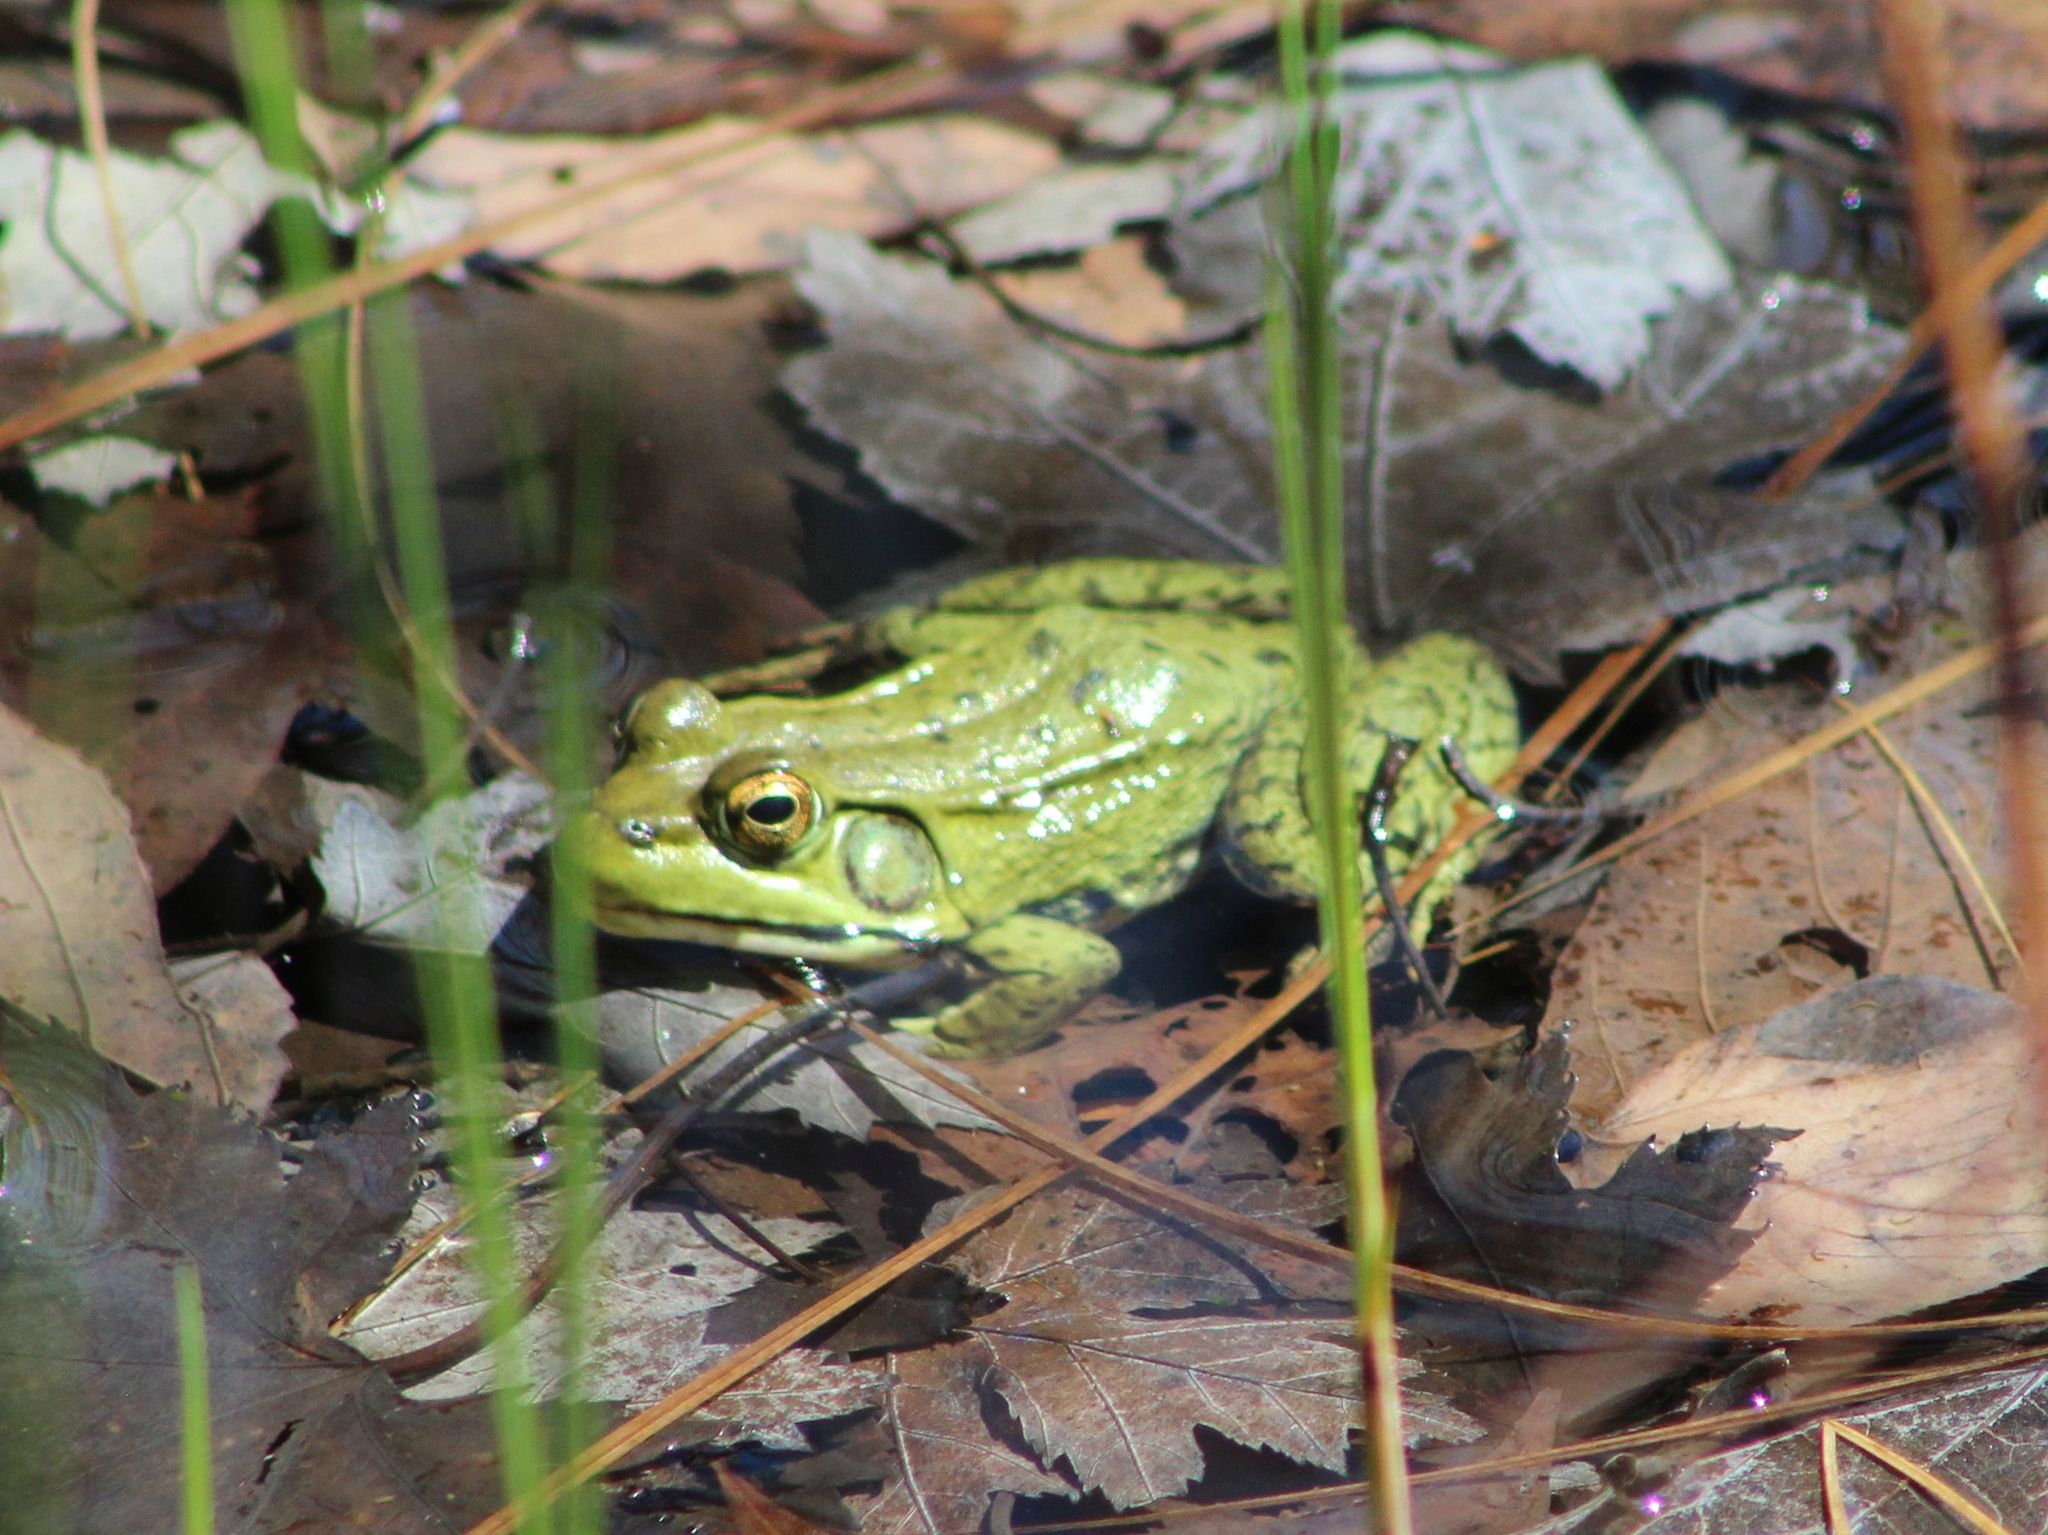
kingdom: Animalia
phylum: Chordata
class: Amphibia
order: Anura
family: Ranidae
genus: Lithobates
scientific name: Lithobates clamitans
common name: Green frog
